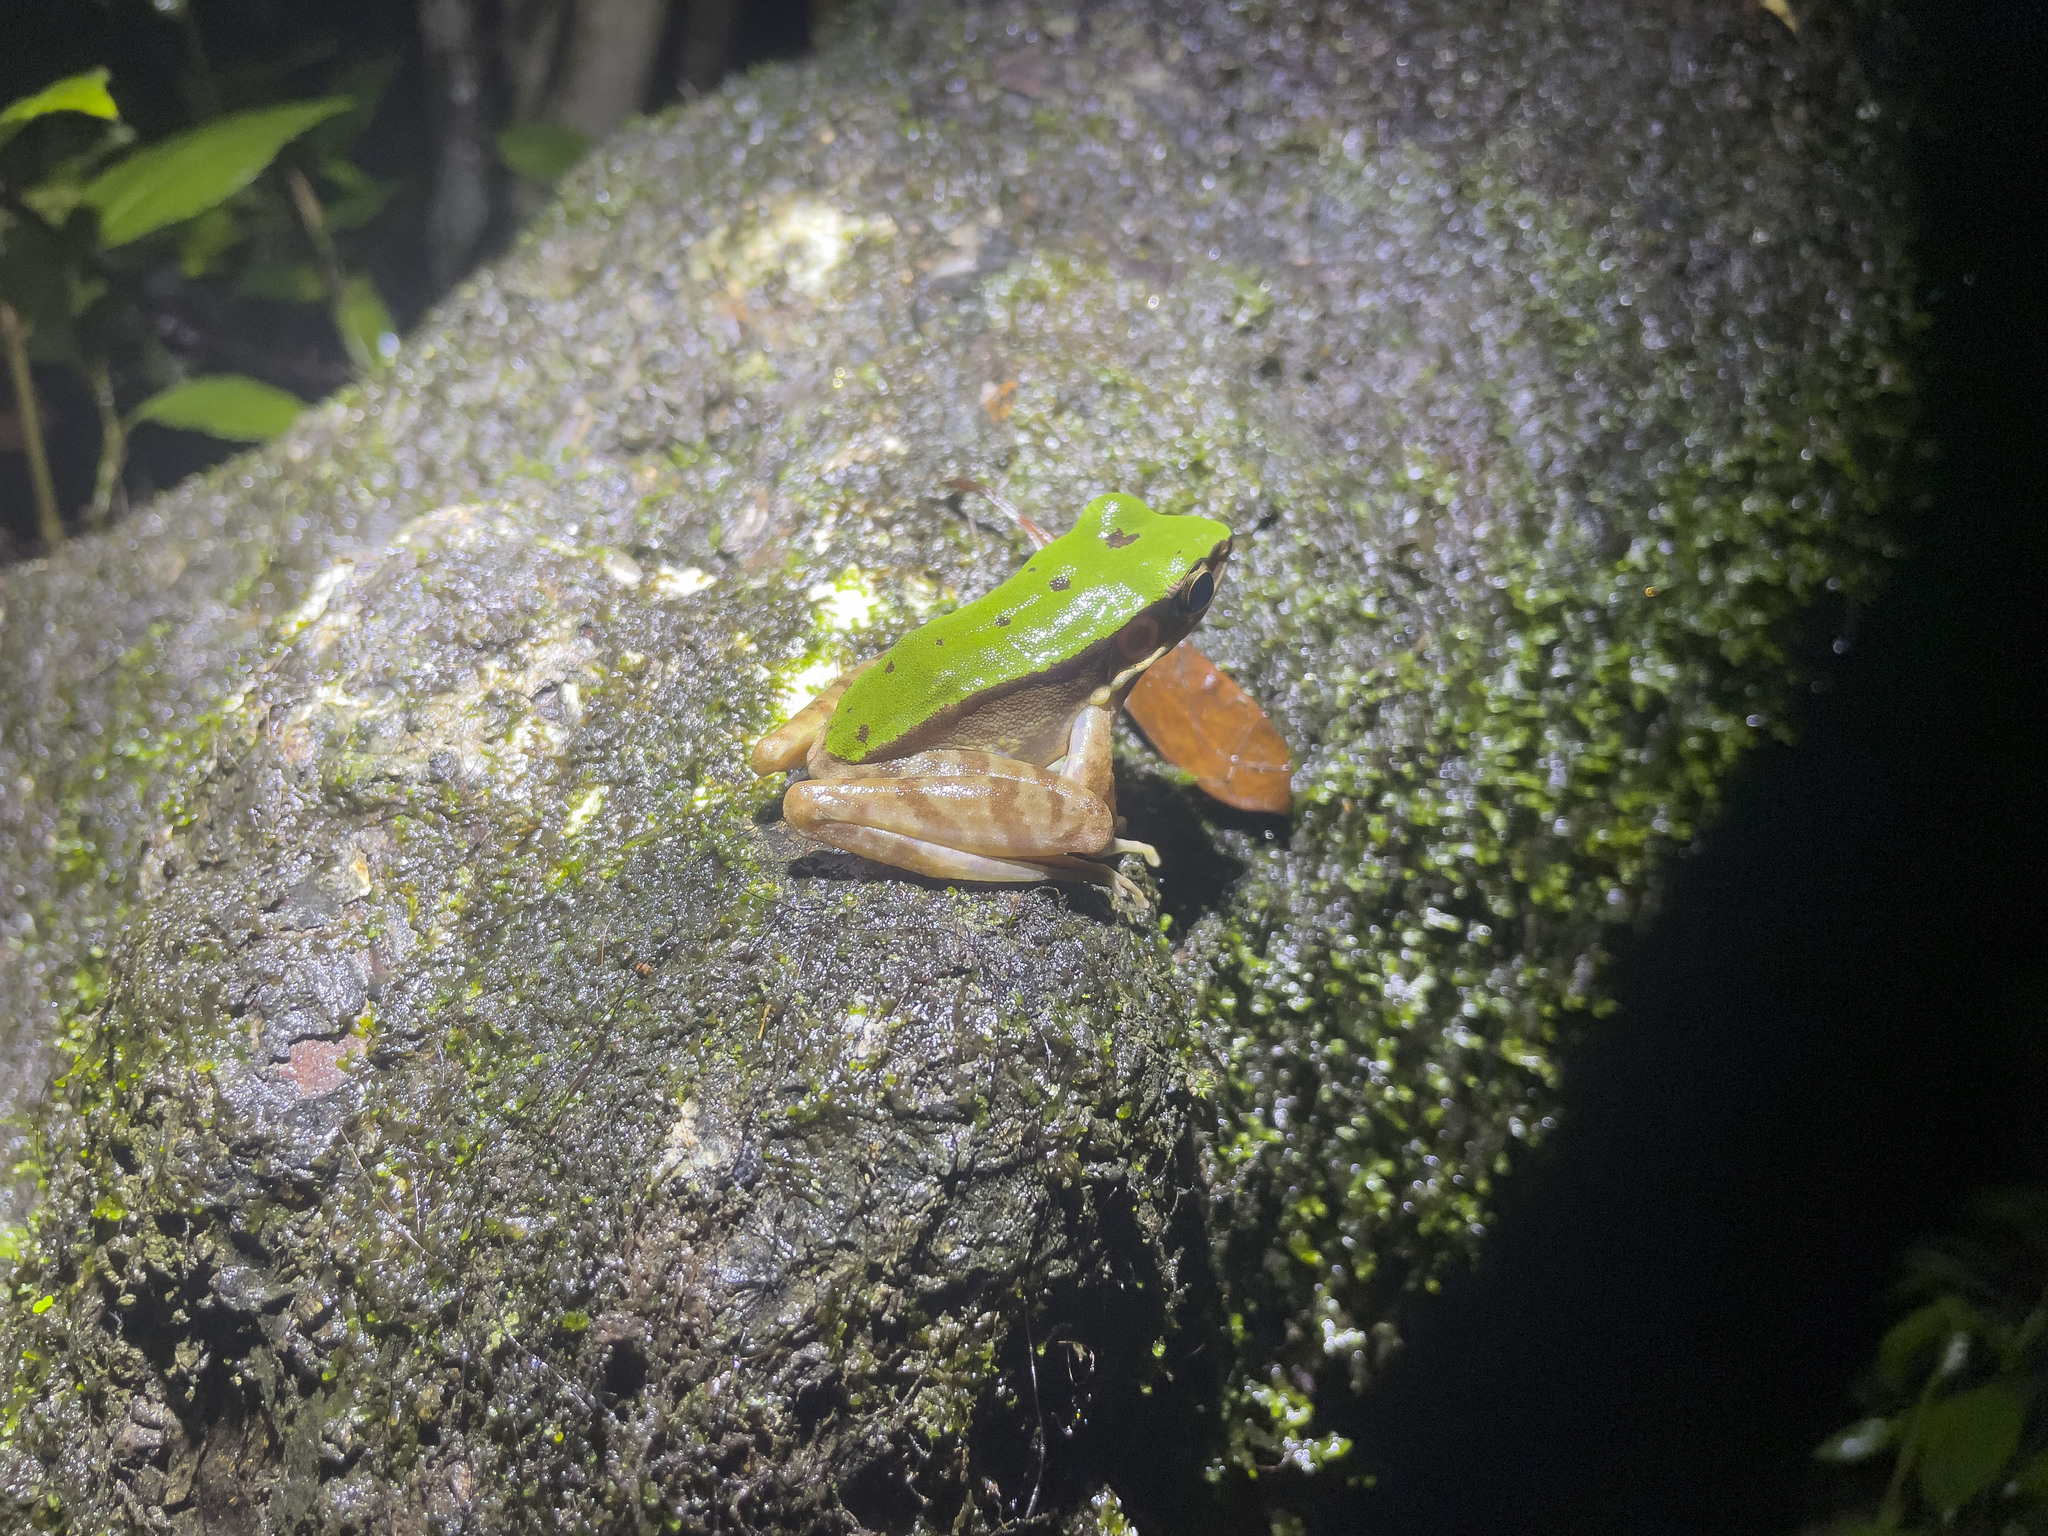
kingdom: Animalia
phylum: Chordata
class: Amphibia
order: Anura
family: Ranidae
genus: Odorrana
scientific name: Odorrana graminea
